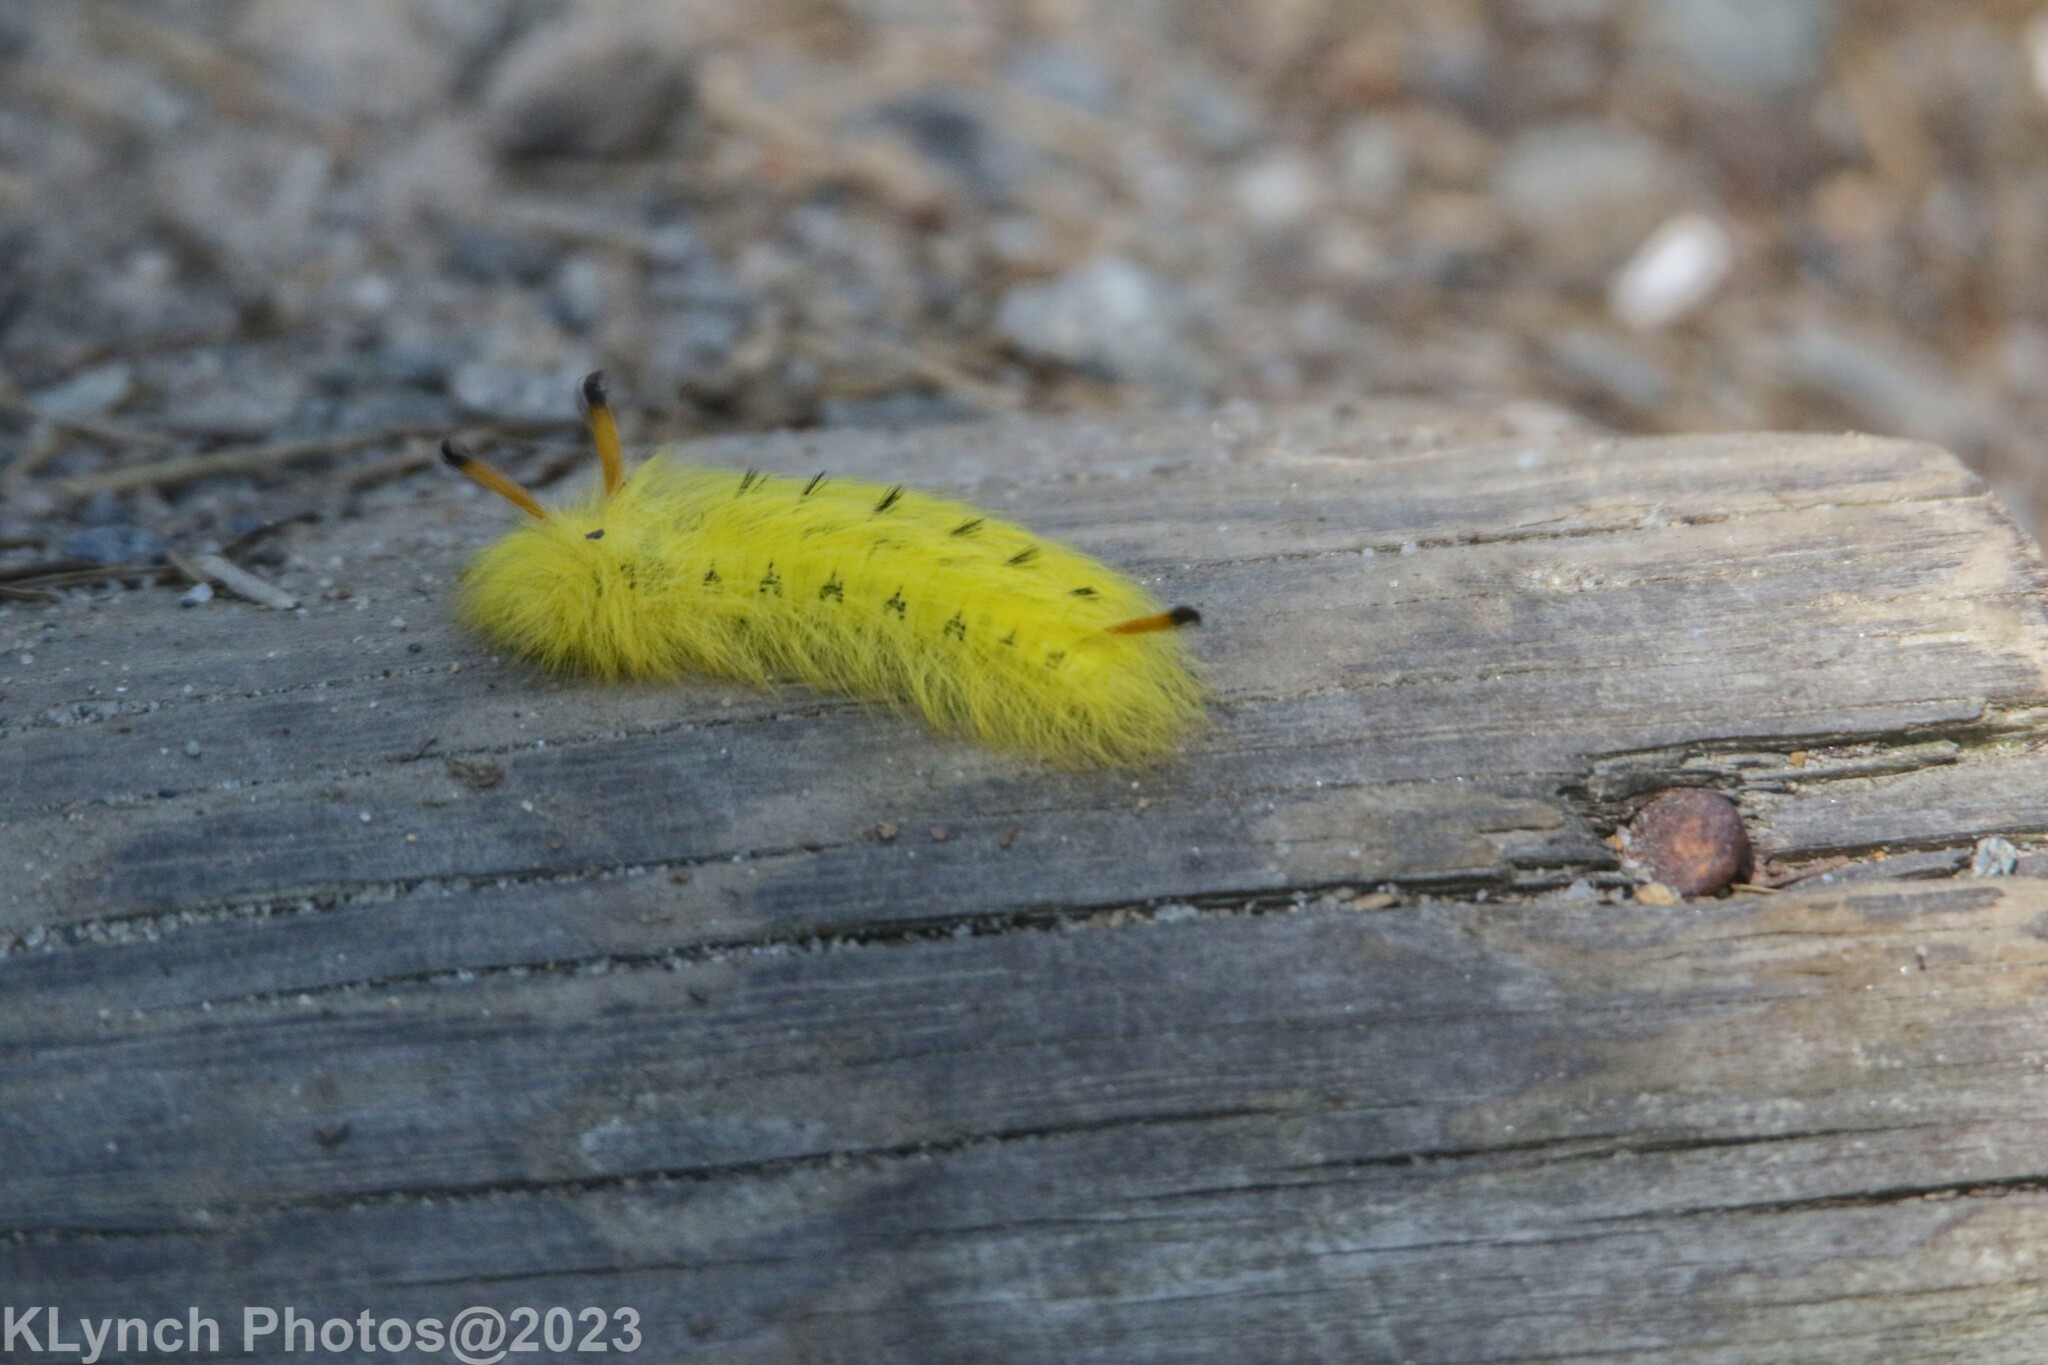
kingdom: Animalia
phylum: Arthropoda
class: Insecta
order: Lepidoptera
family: Apatelodidae
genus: Hygrochroa
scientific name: Hygrochroa Apatelodes torrefacta
